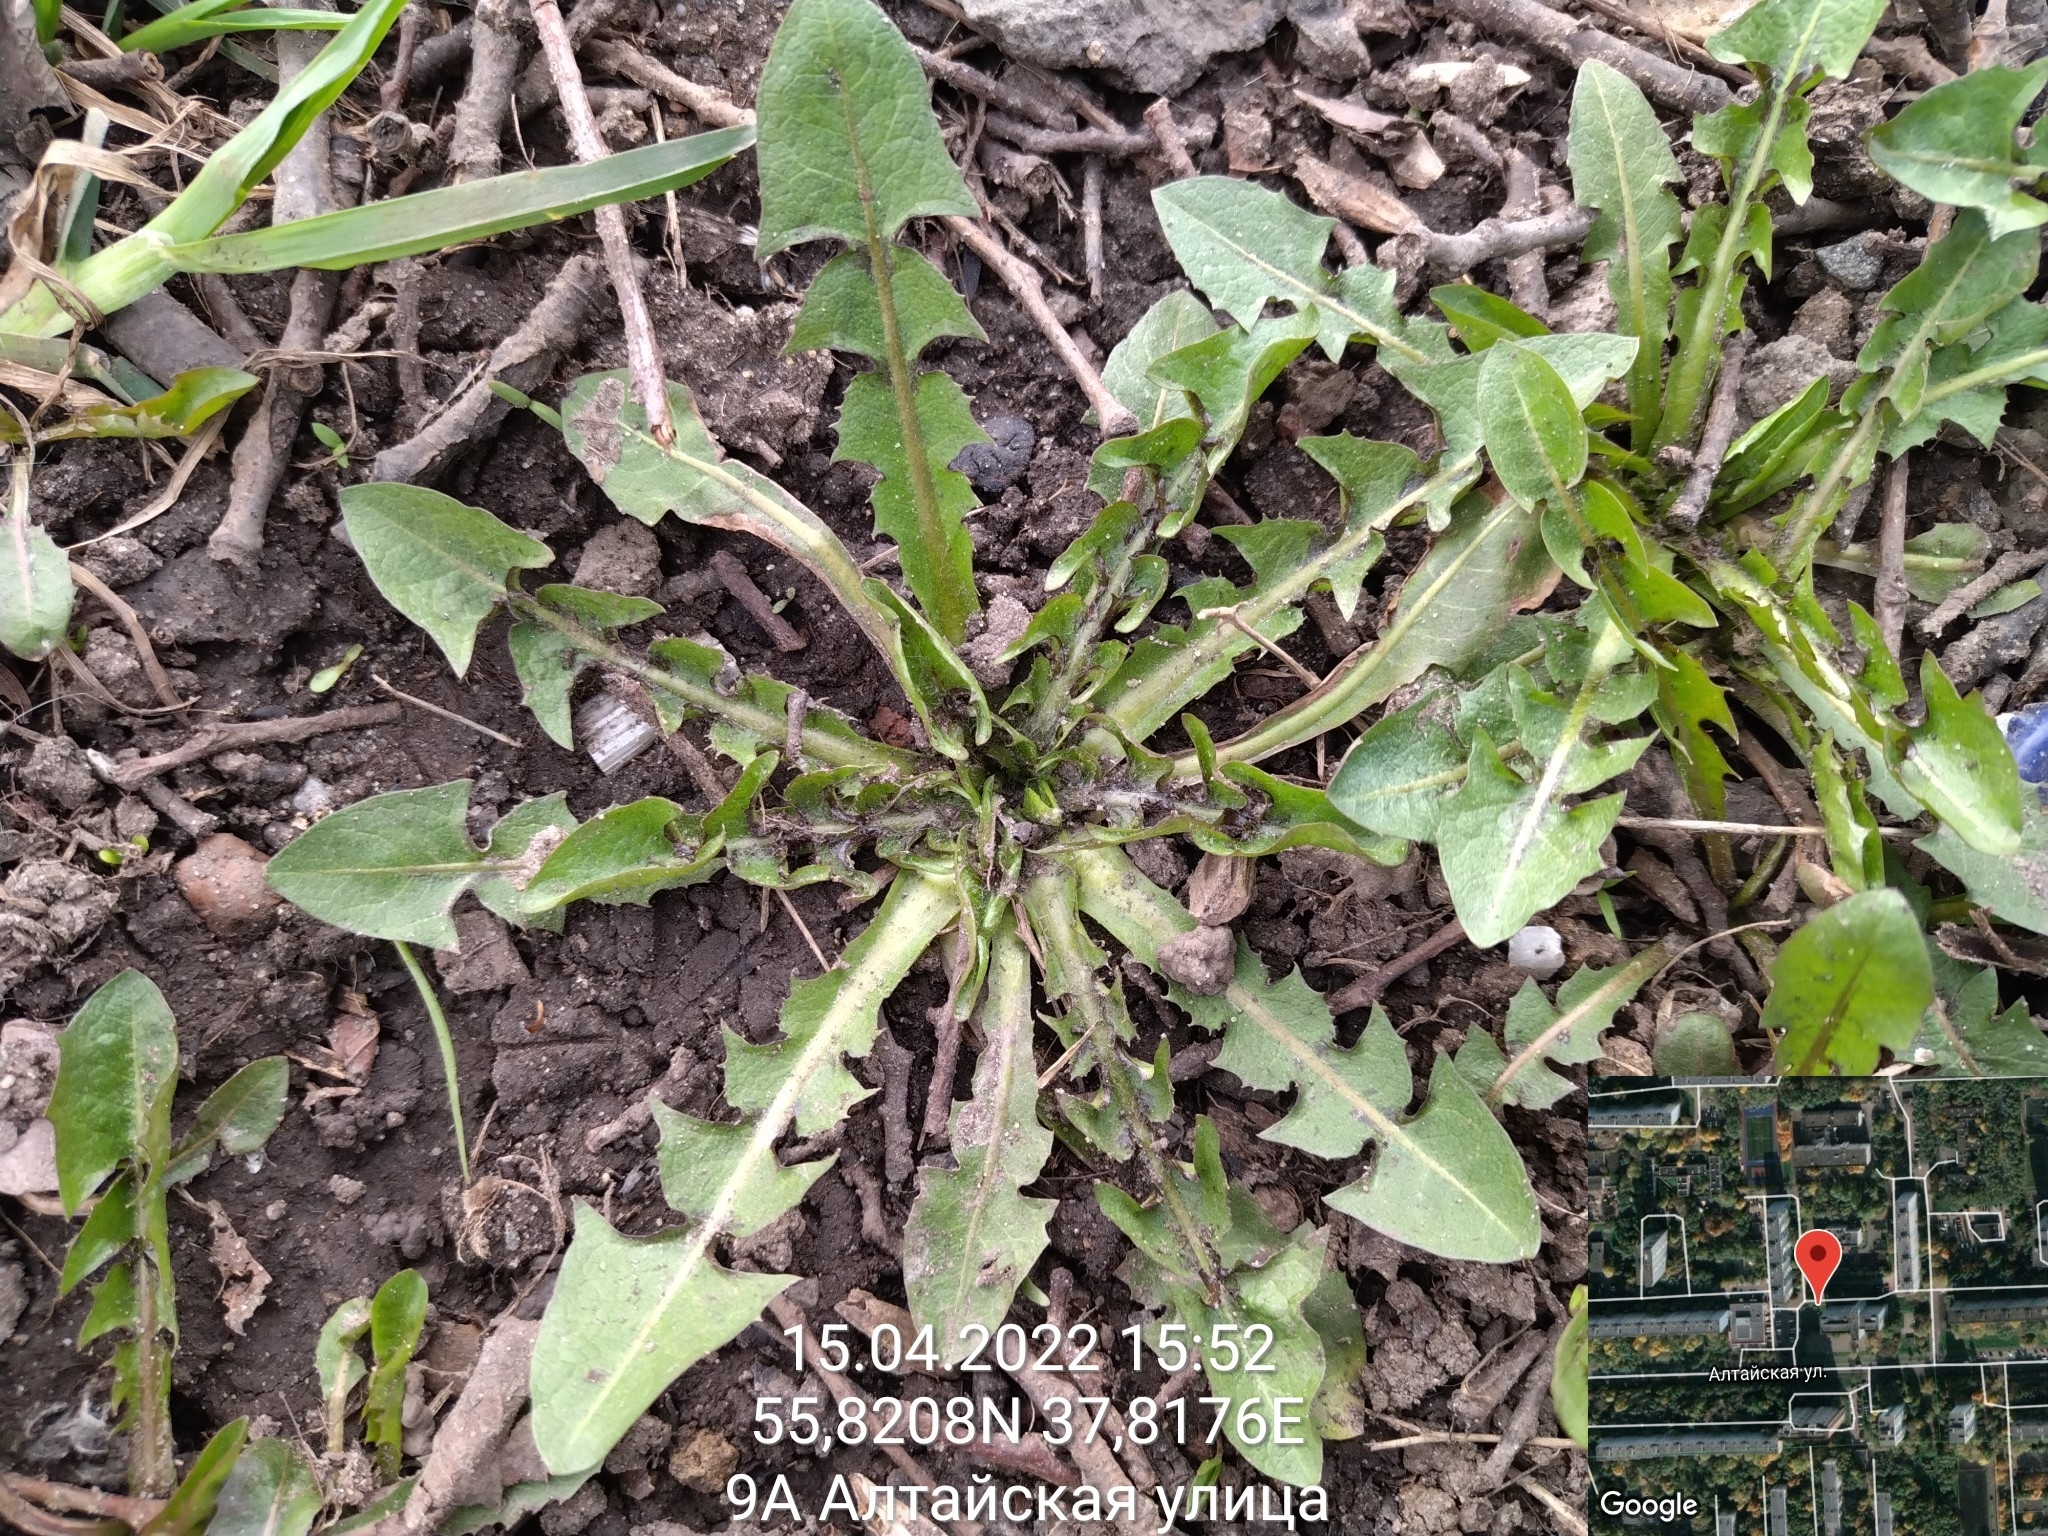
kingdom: Plantae
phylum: Tracheophyta
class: Magnoliopsida
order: Asterales
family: Asteraceae
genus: Taraxacum
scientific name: Taraxacum officinale
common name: Common dandelion
